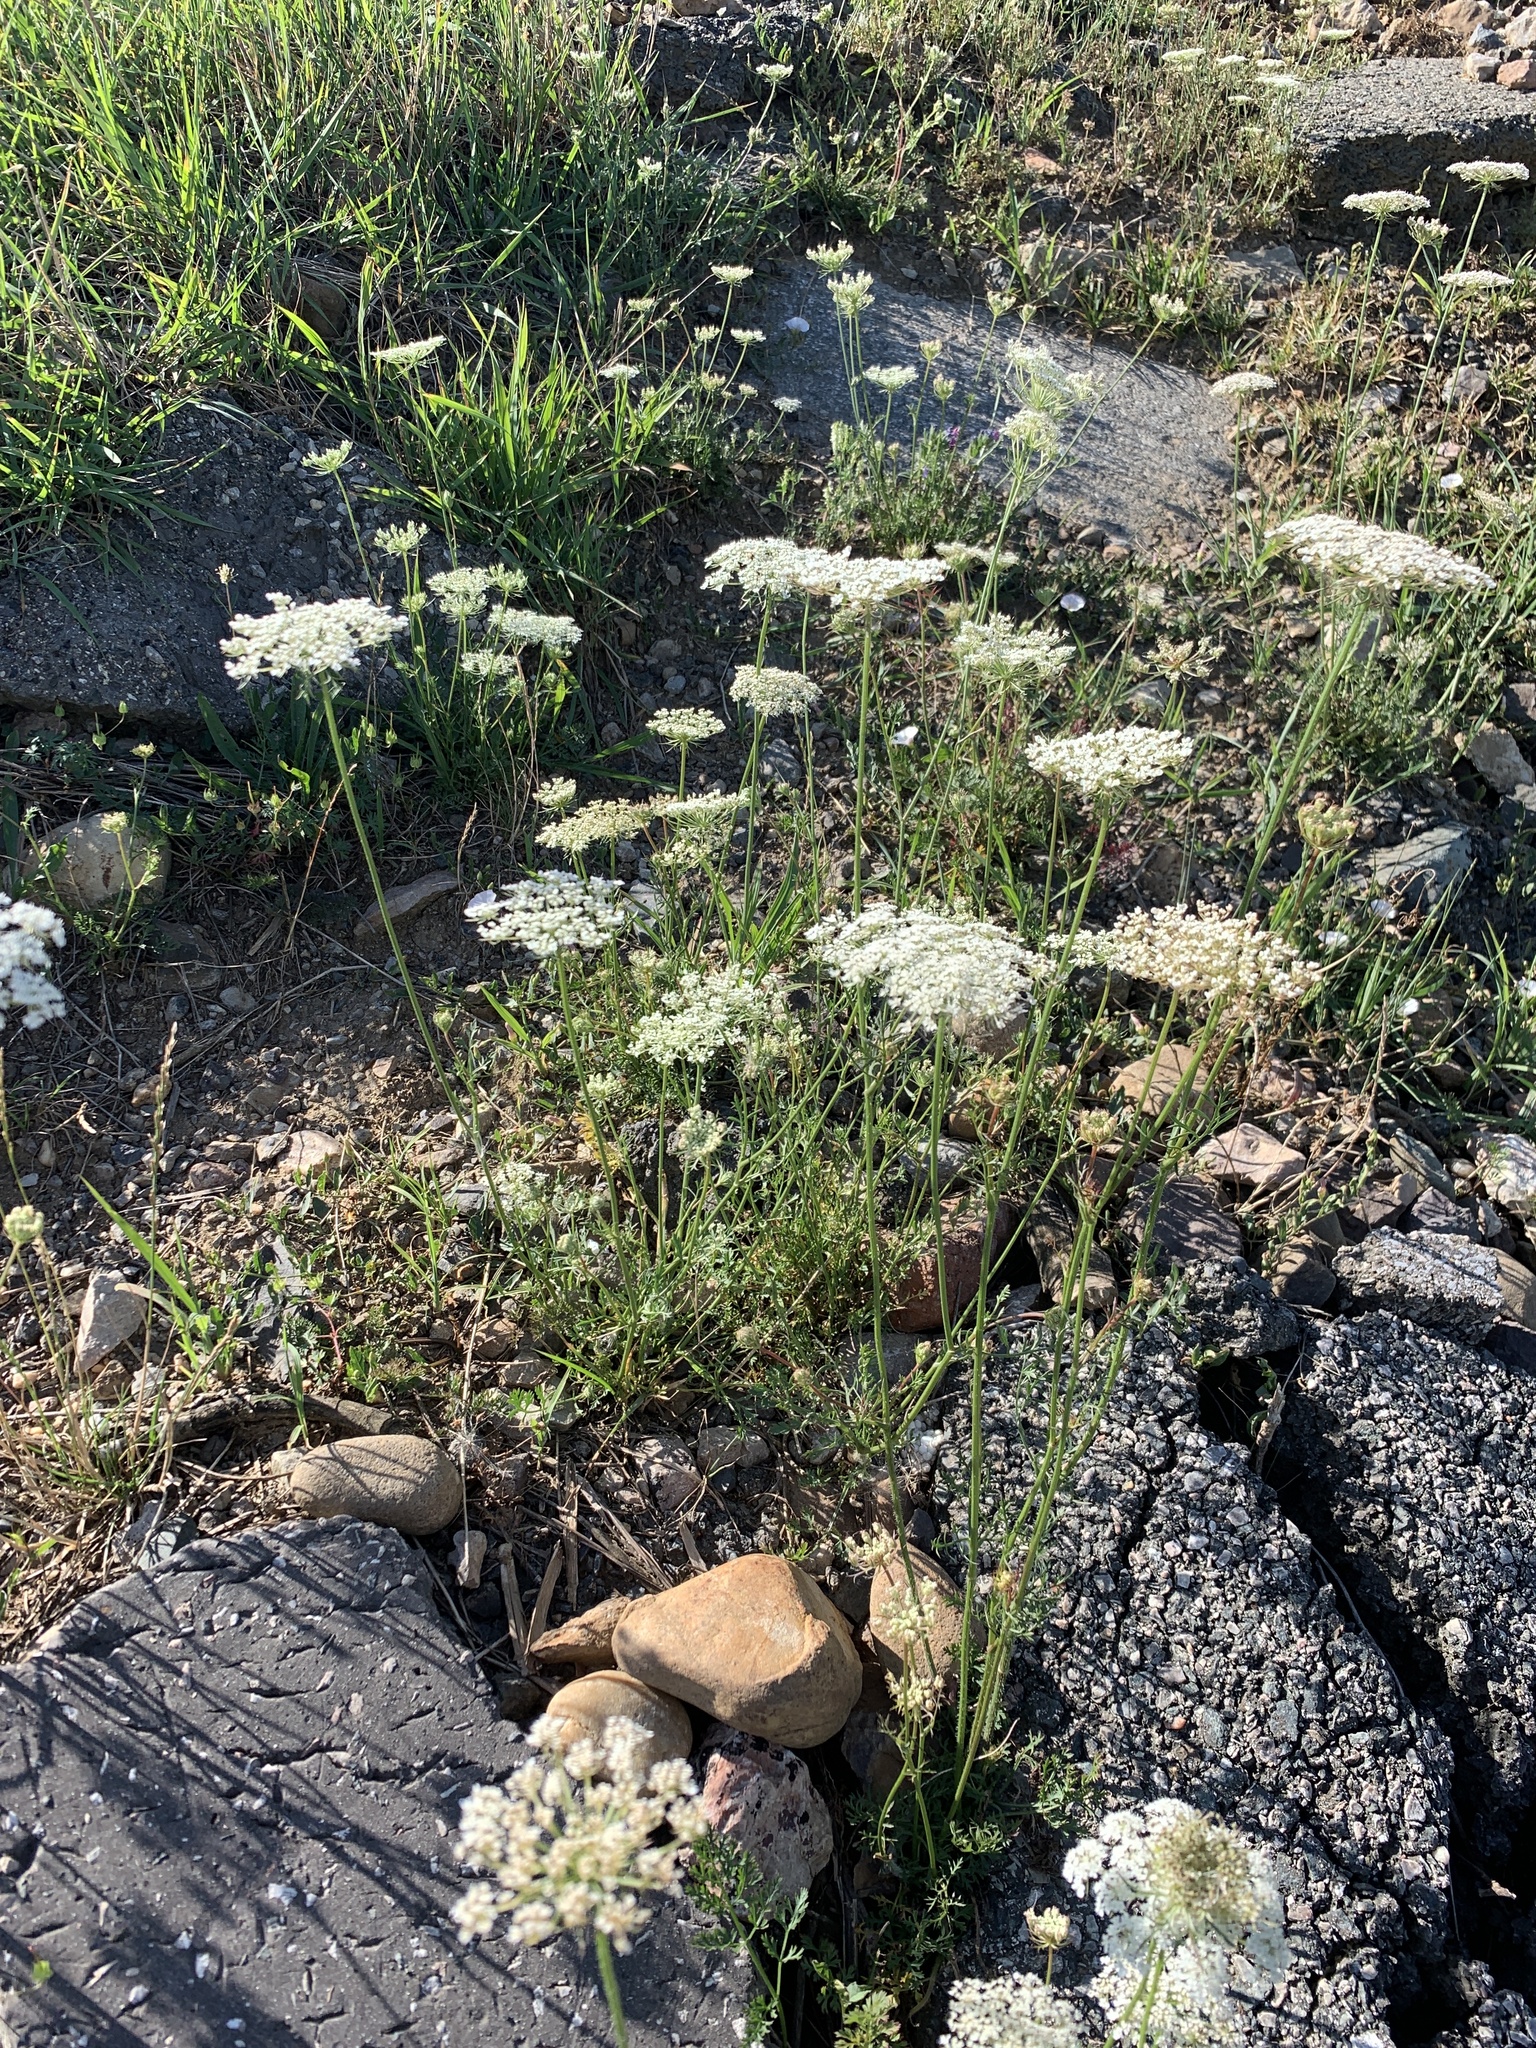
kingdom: Plantae
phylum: Tracheophyta
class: Magnoliopsida
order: Apiales
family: Apiaceae
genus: Daucus
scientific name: Daucus carota
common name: Wild carrot
